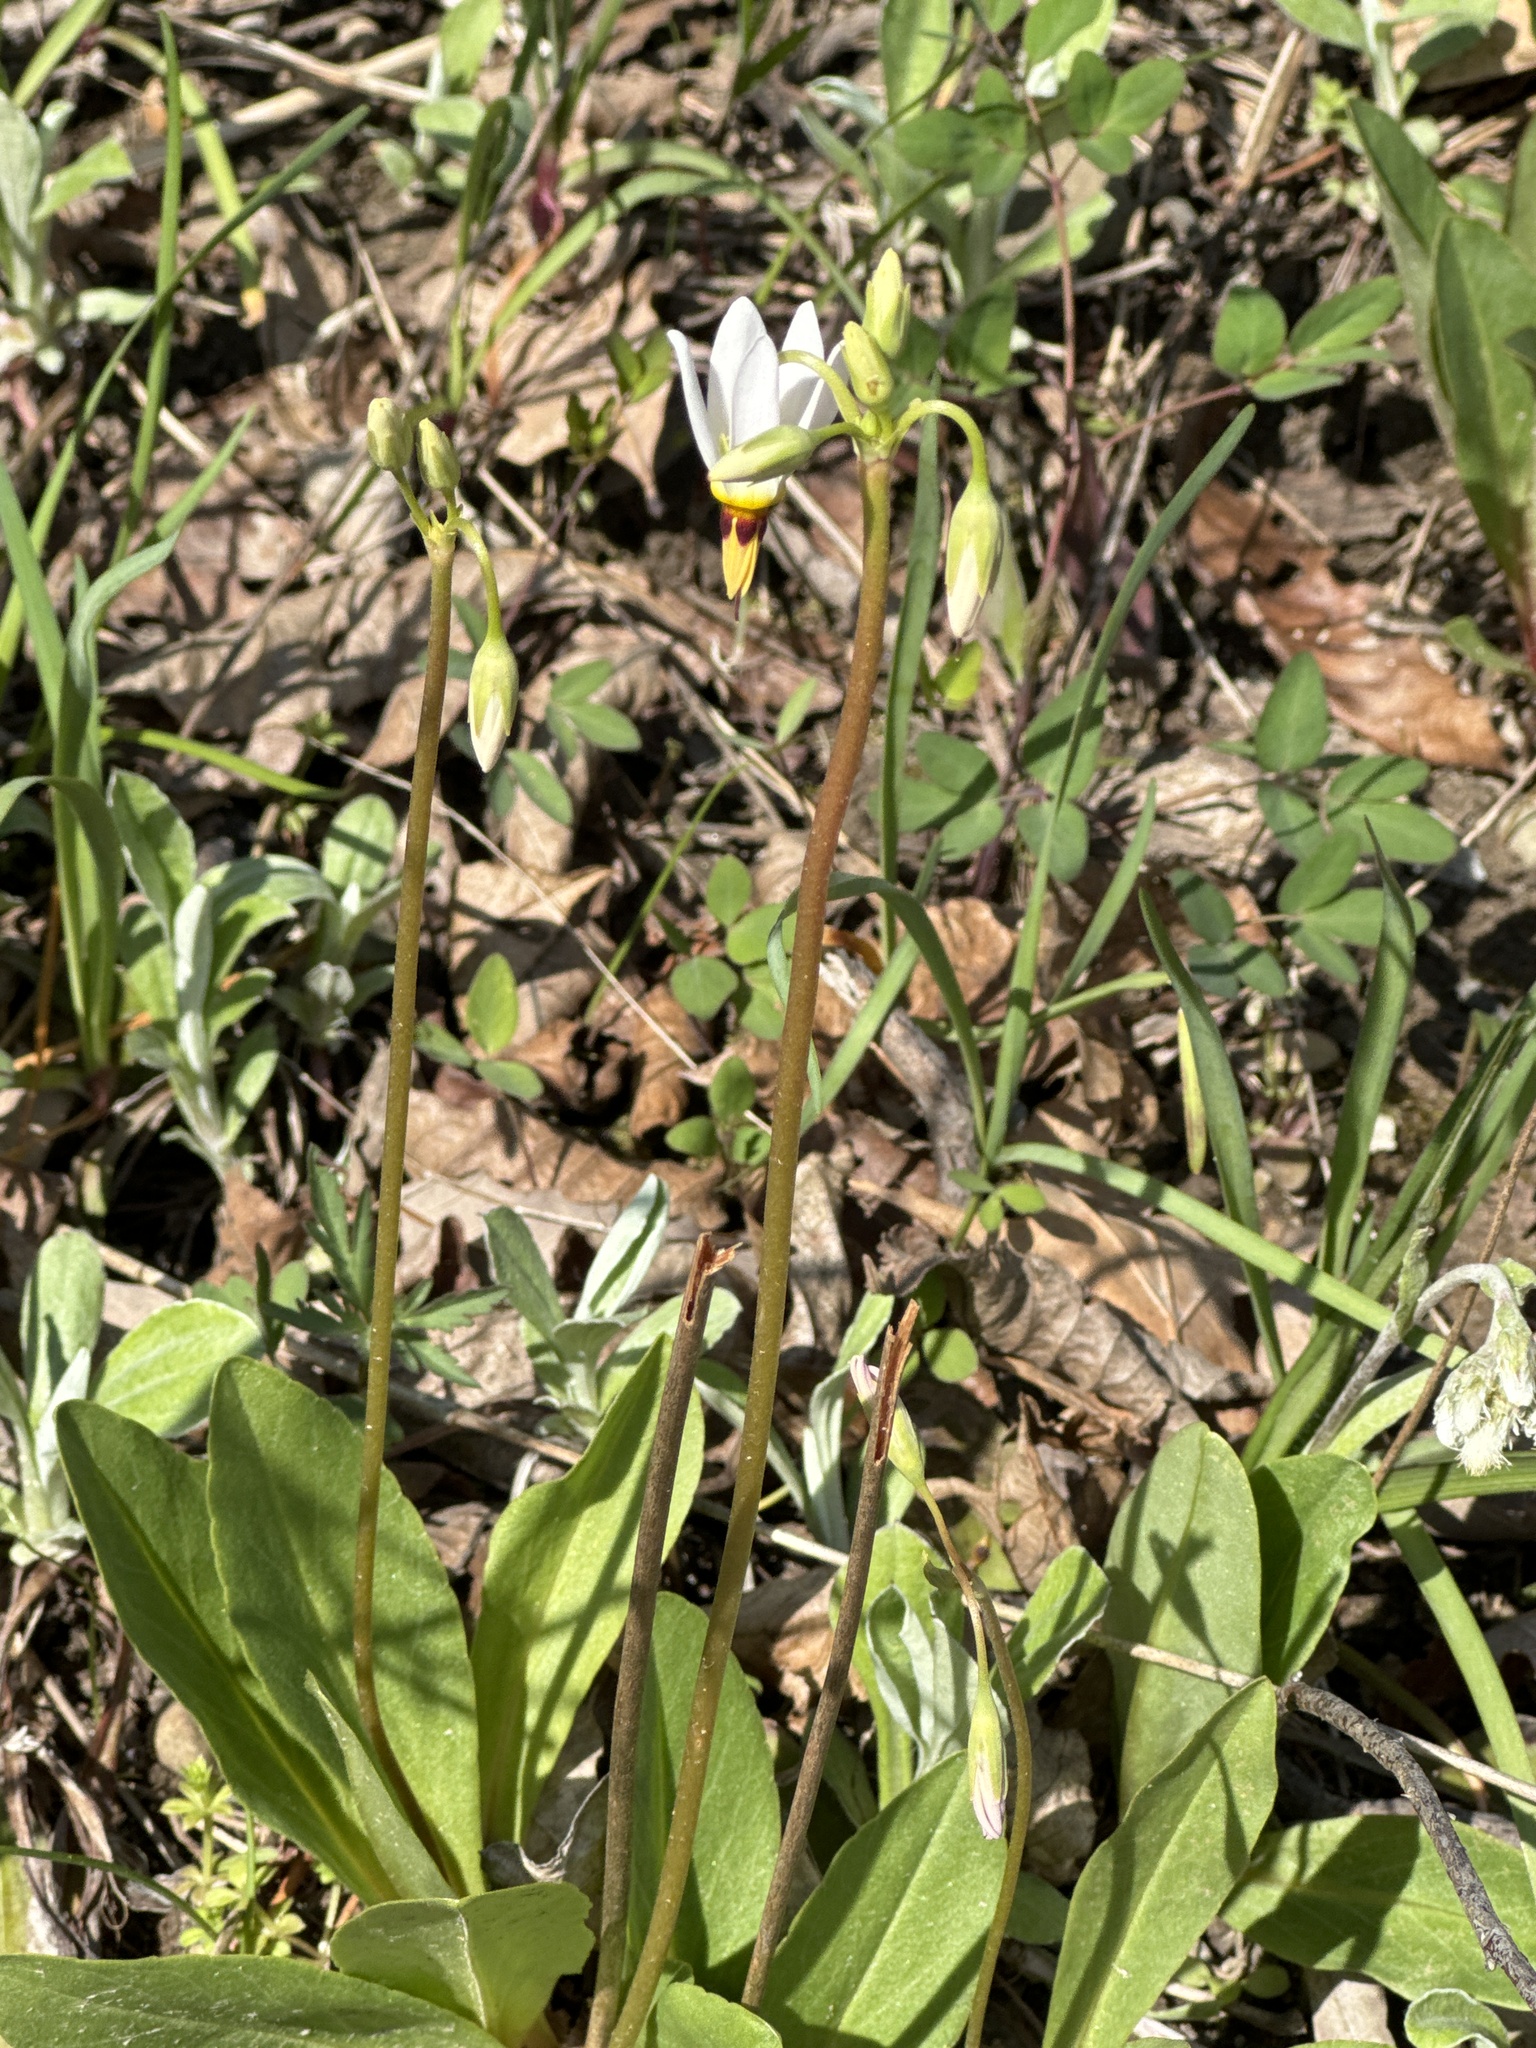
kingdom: Plantae
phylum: Tracheophyta
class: Magnoliopsida
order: Ericales
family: Primulaceae
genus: Dodecatheon
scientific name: Dodecatheon meadia
